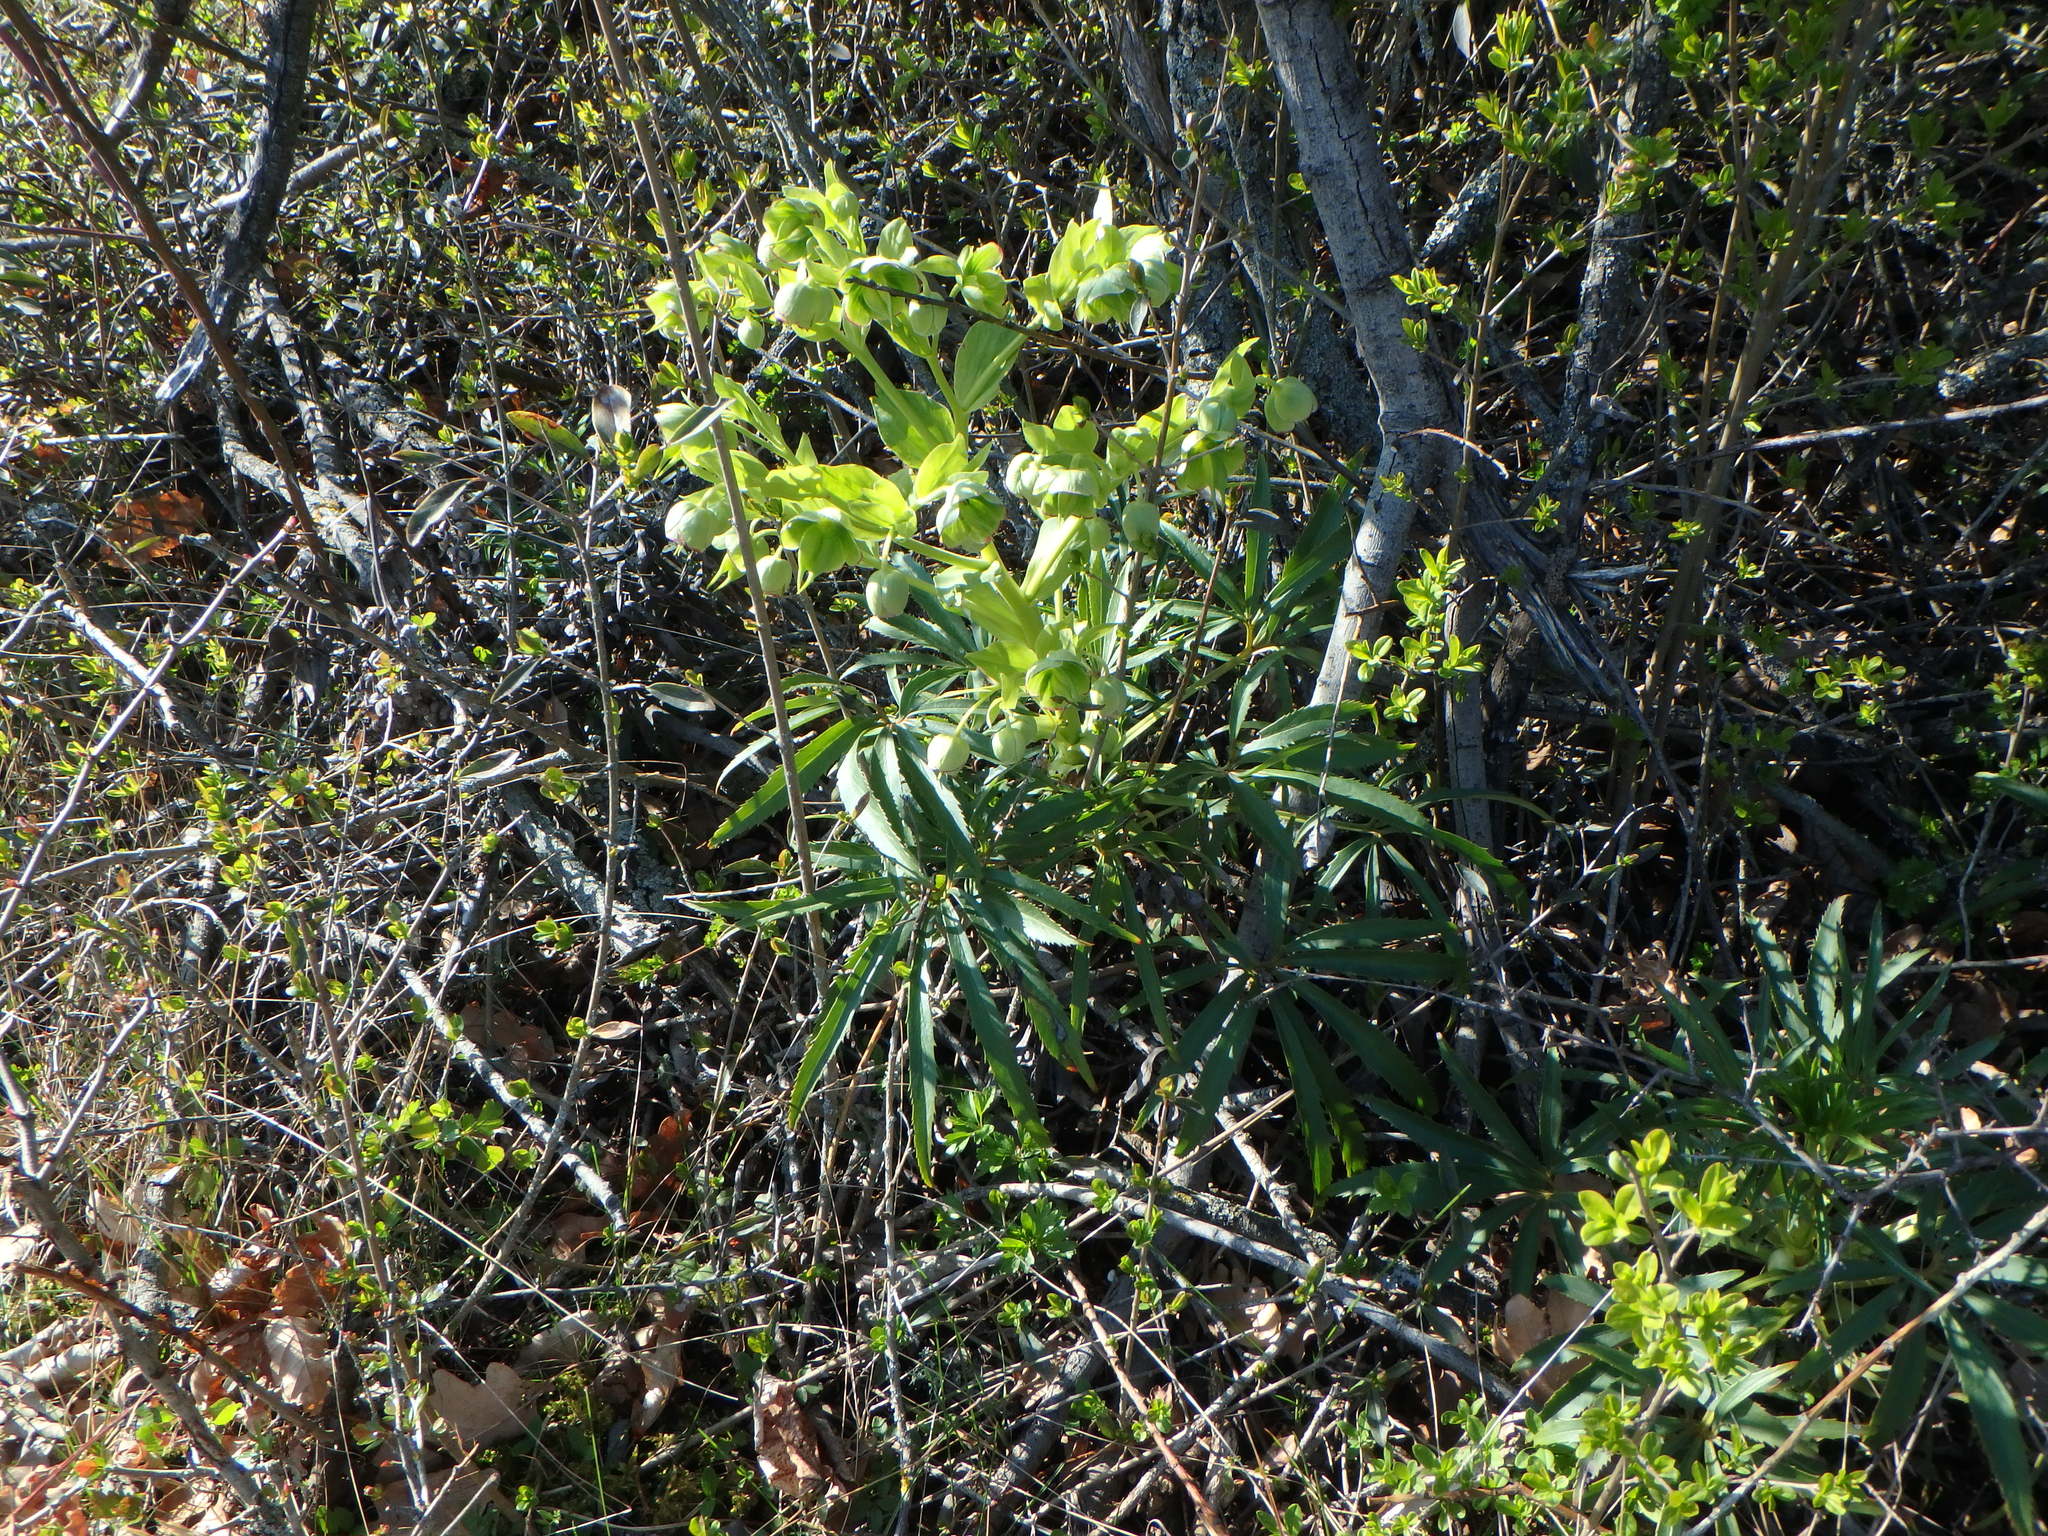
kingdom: Plantae
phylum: Tracheophyta
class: Magnoliopsida
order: Ranunculales
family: Ranunculaceae
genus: Helleborus
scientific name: Helleborus foetidus
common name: Stinking hellebore
